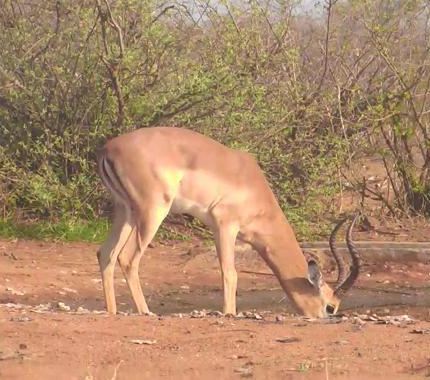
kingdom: Animalia
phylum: Chordata
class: Mammalia
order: Artiodactyla
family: Bovidae
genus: Aepyceros
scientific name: Aepyceros melampus
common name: Impala
